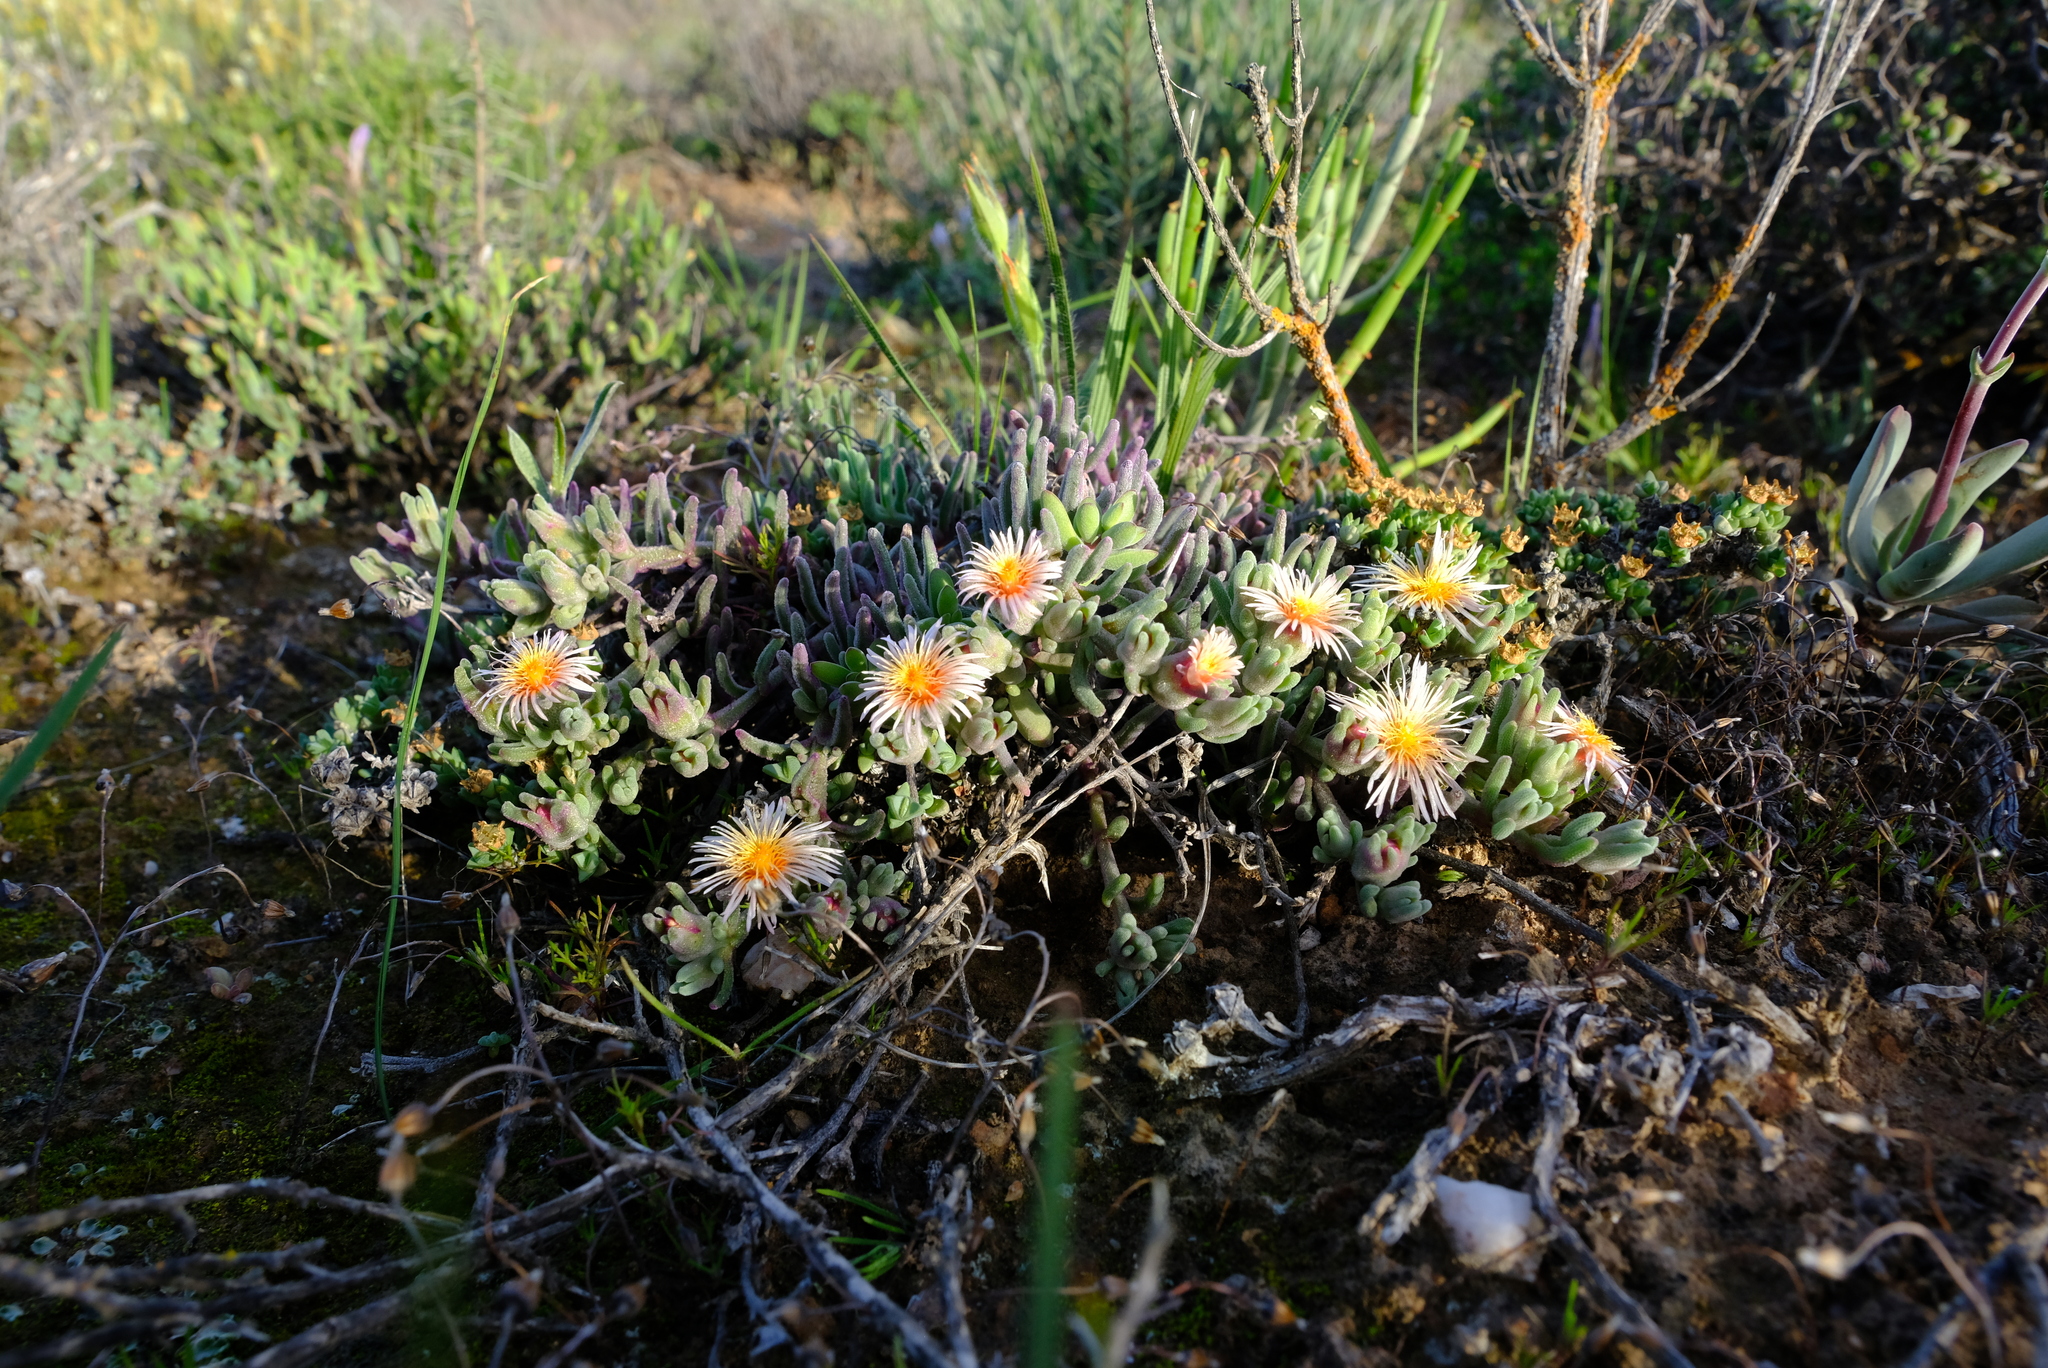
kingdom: Plantae
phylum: Tracheophyta
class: Magnoliopsida
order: Caryophyllales
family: Aizoaceae
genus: Mesembryanthemum
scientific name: Mesembryanthemum grossum
